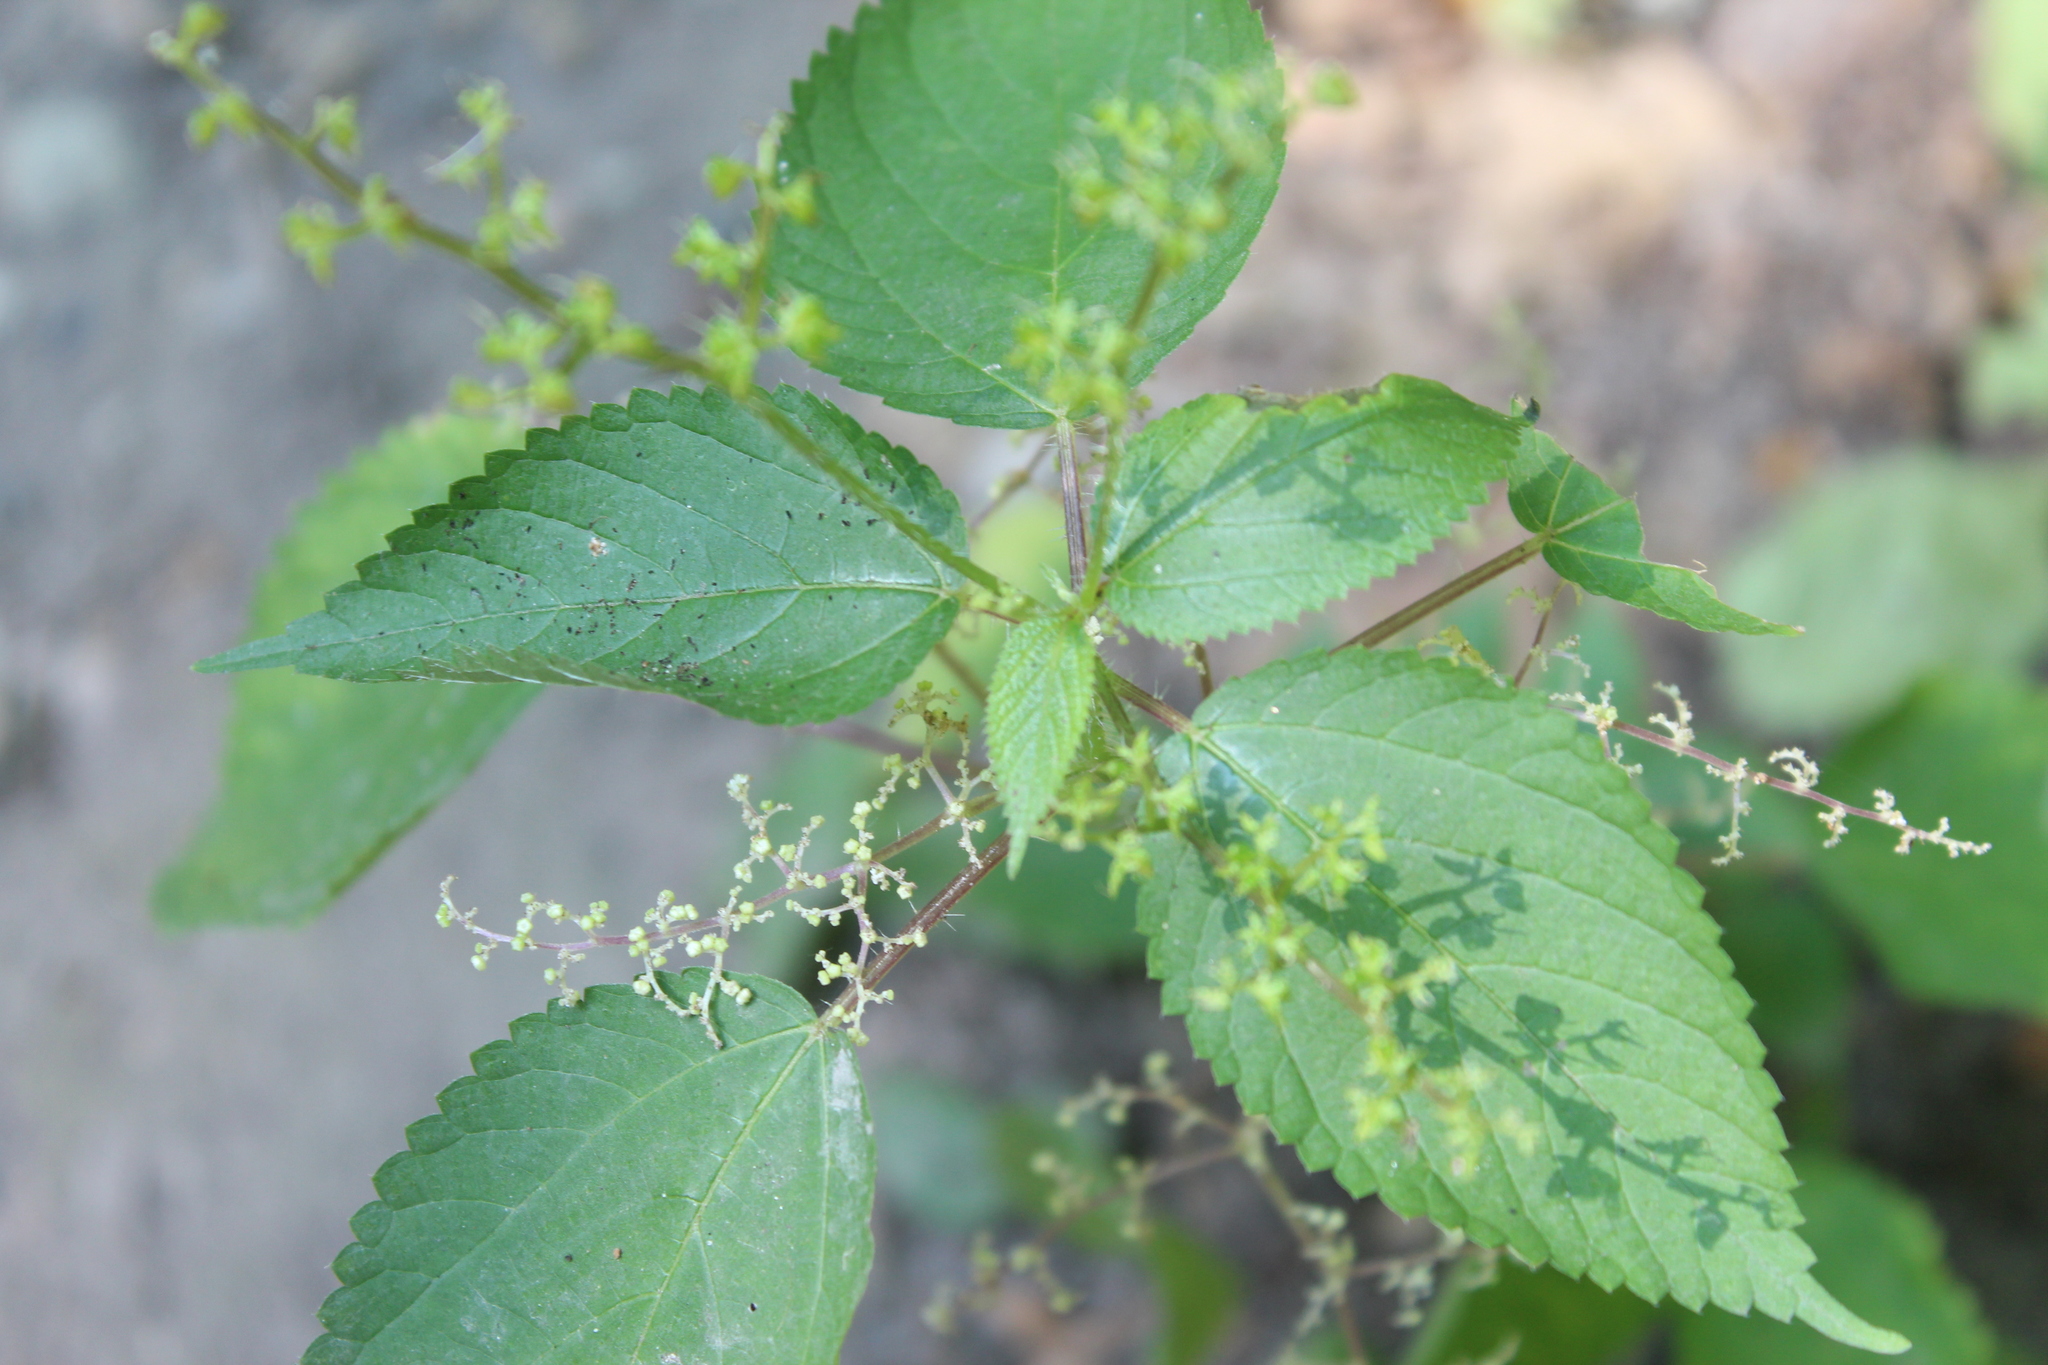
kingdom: Plantae
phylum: Tracheophyta
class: Magnoliopsida
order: Rosales
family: Urticaceae
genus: Laportea
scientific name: Laportea canadensis
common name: Canada nettle
